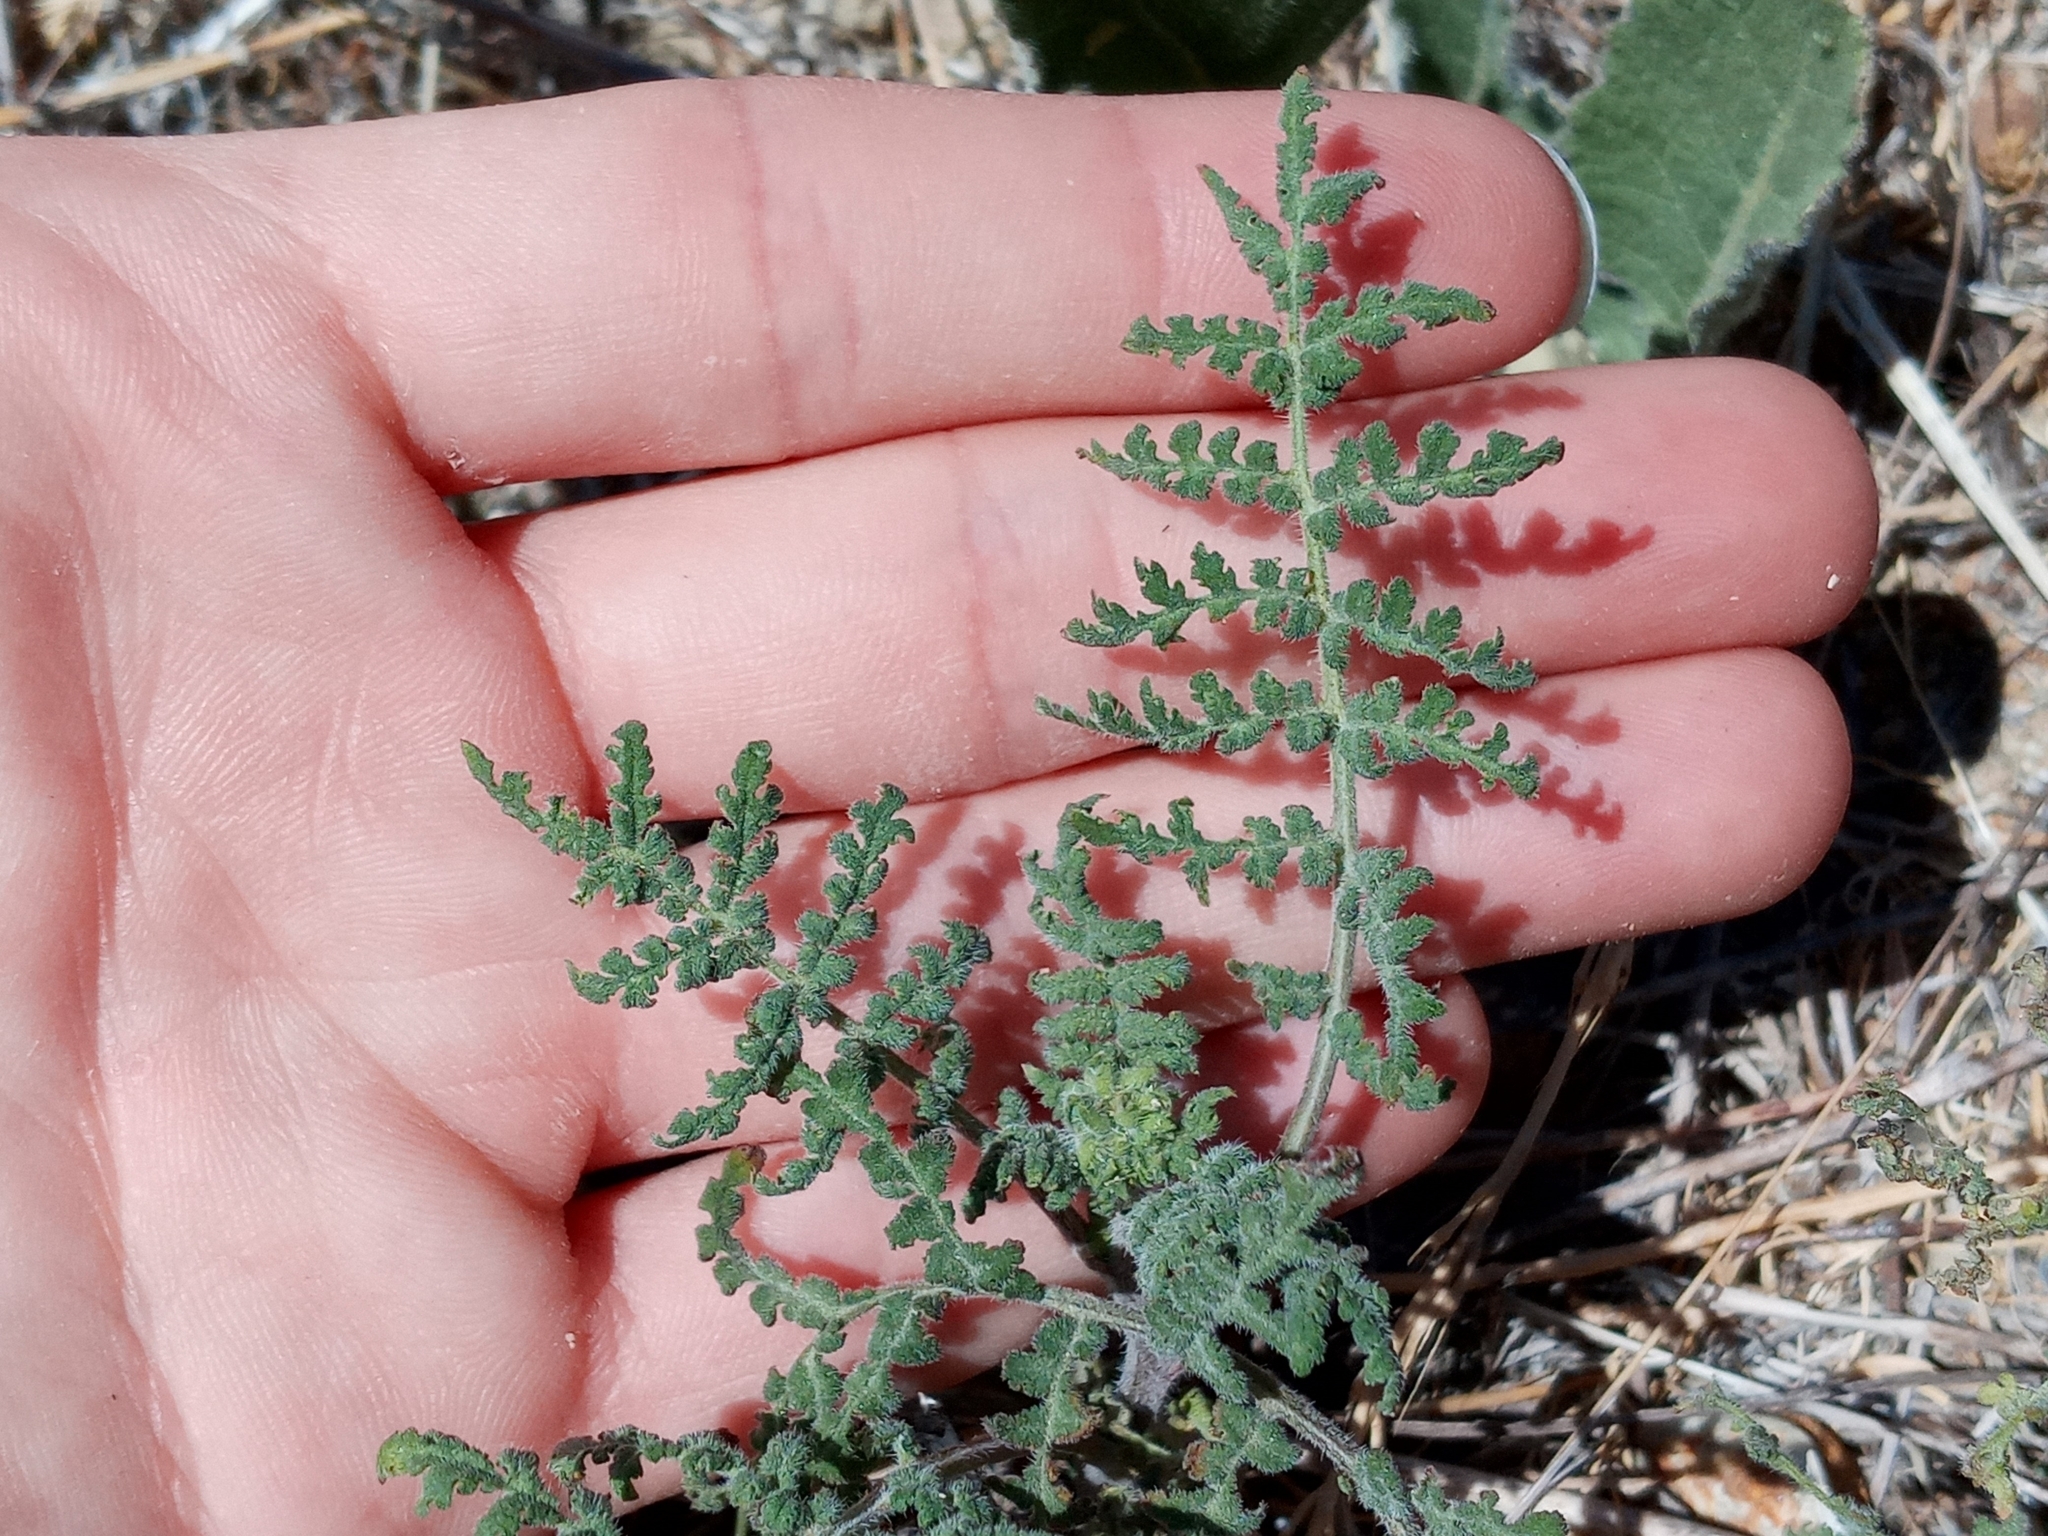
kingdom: Plantae
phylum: Tracheophyta
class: Magnoliopsida
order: Boraginales
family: Hydrophyllaceae
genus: Phacelia
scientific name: Phacelia distans
